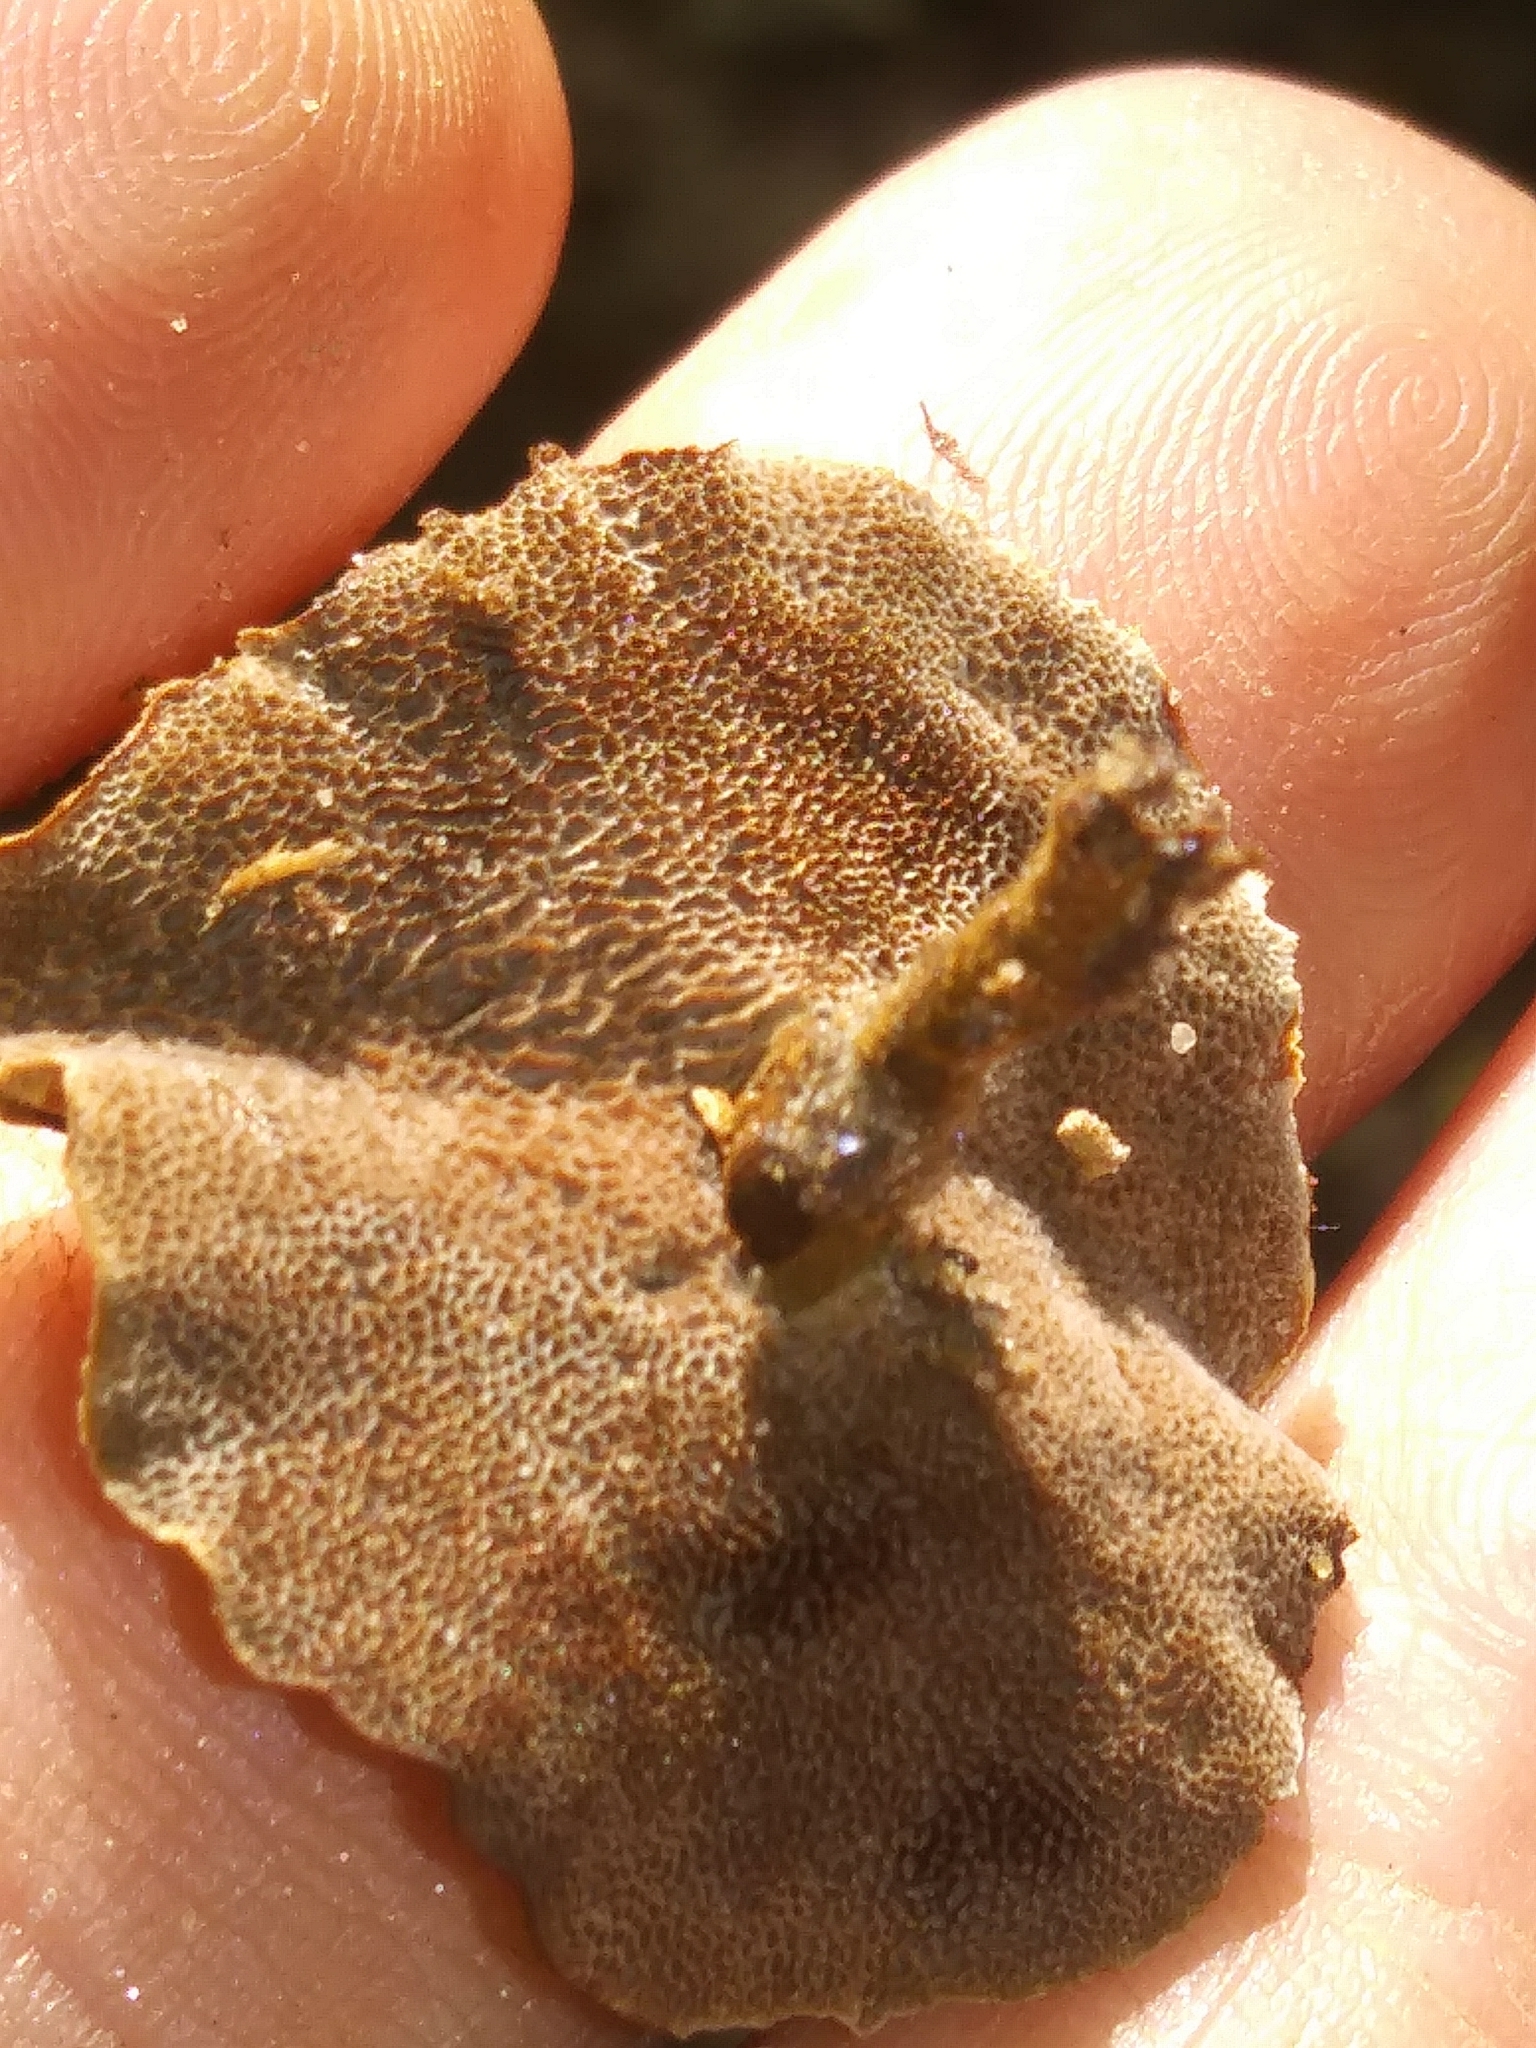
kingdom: Fungi
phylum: Basidiomycota
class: Agaricomycetes
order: Hymenochaetales
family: Hymenochaetaceae
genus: Coltricia
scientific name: Coltricia cinnamomea
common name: Shiny cinnamon polypore
